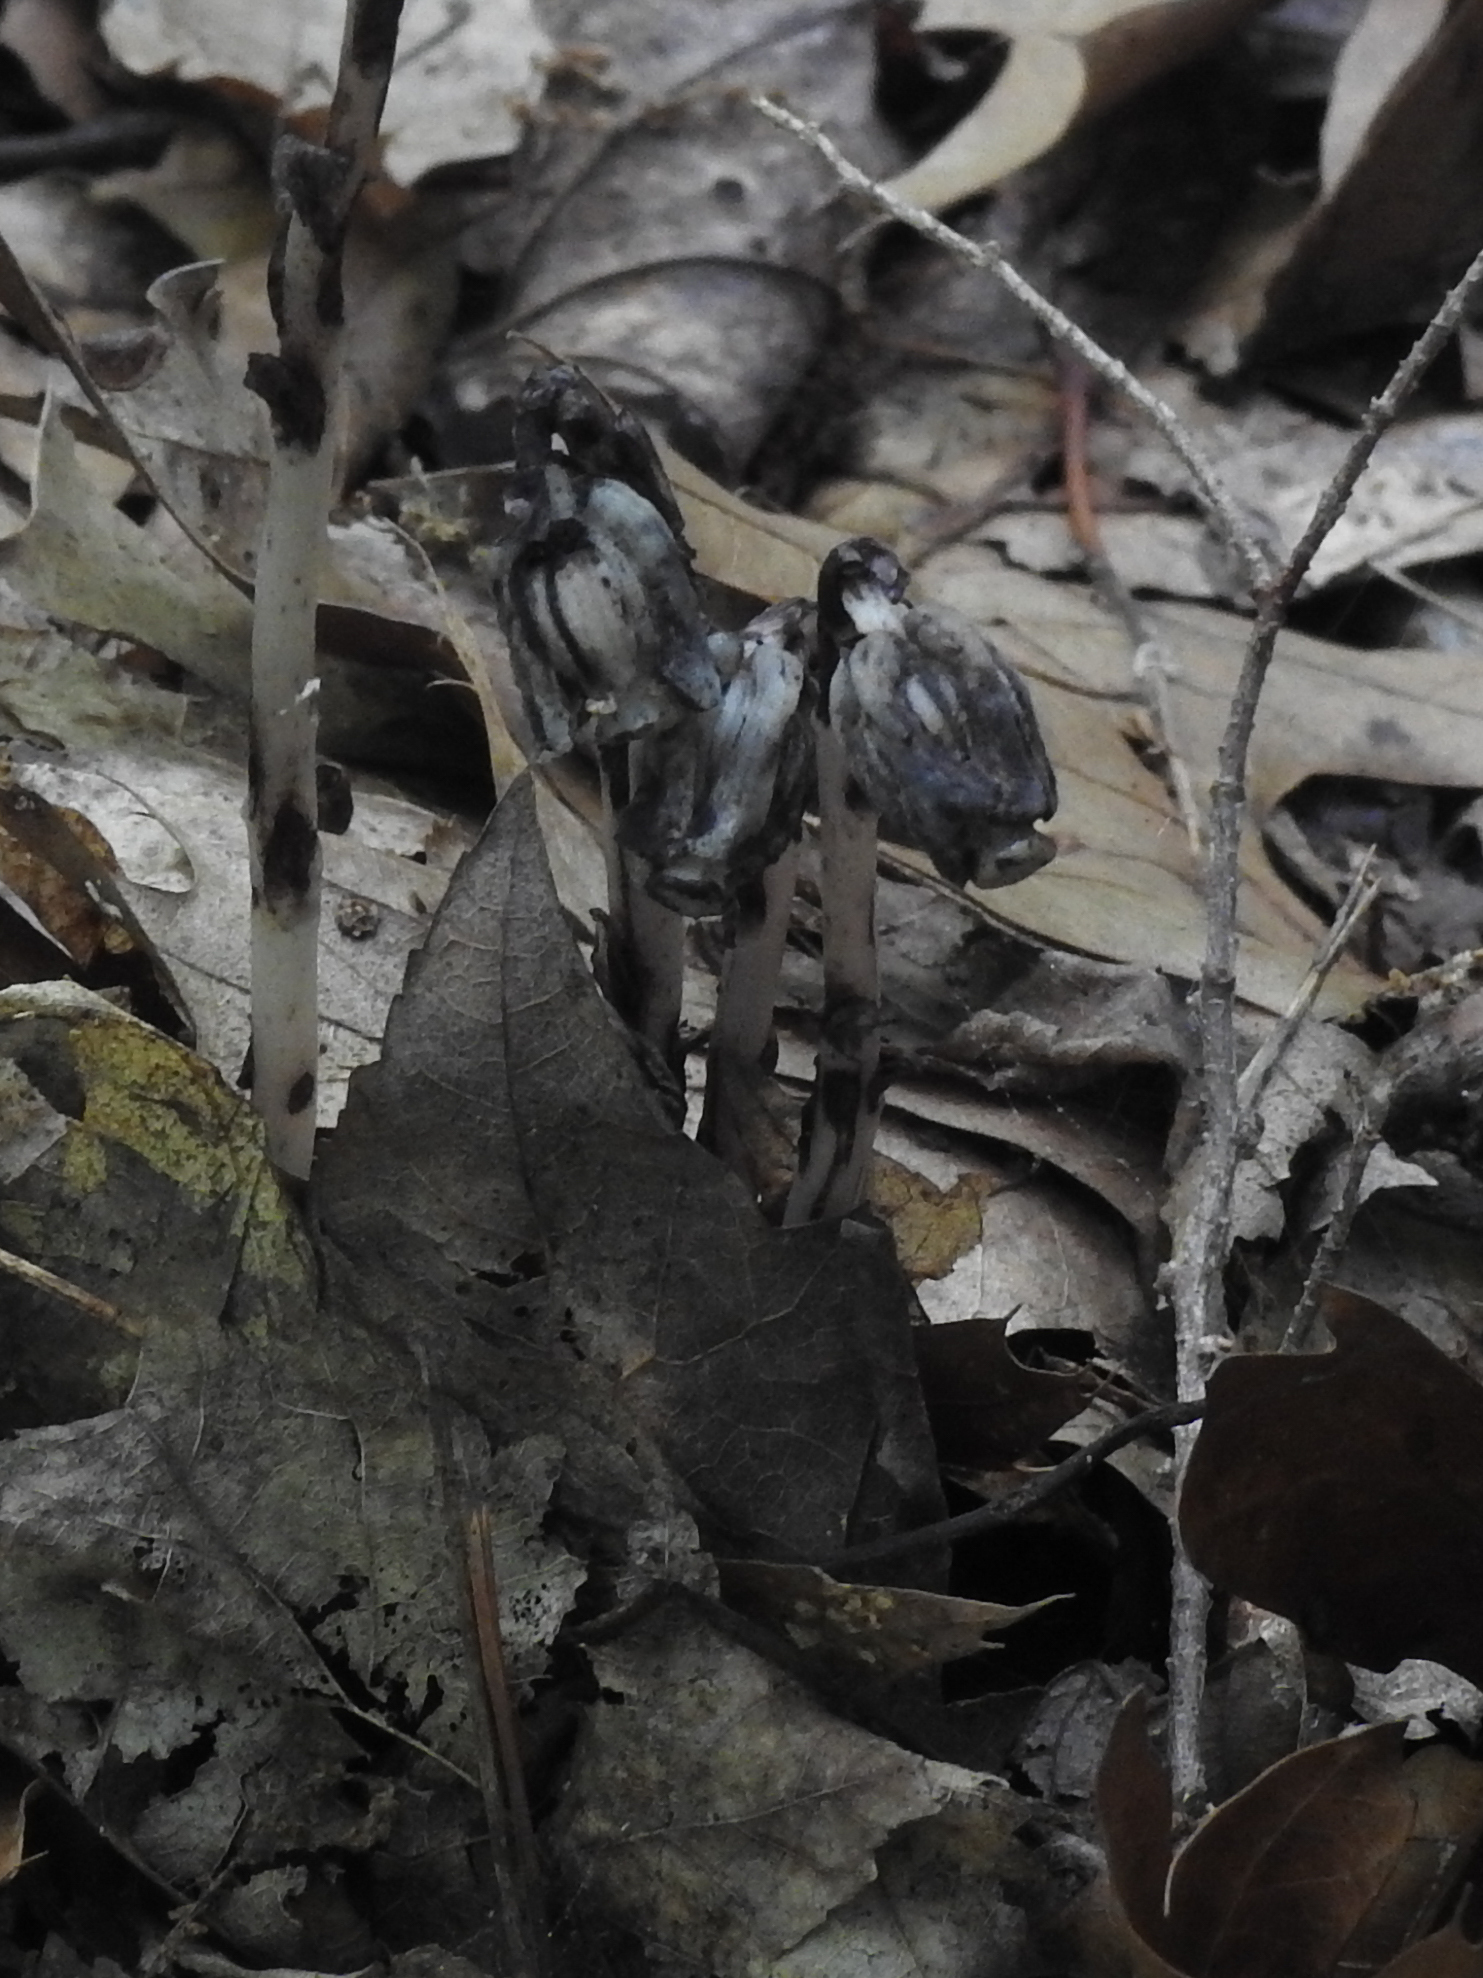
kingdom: Plantae
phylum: Tracheophyta
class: Magnoliopsida
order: Ericales
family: Ericaceae
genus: Monotropa
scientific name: Monotropa uniflora
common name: Convulsion root
